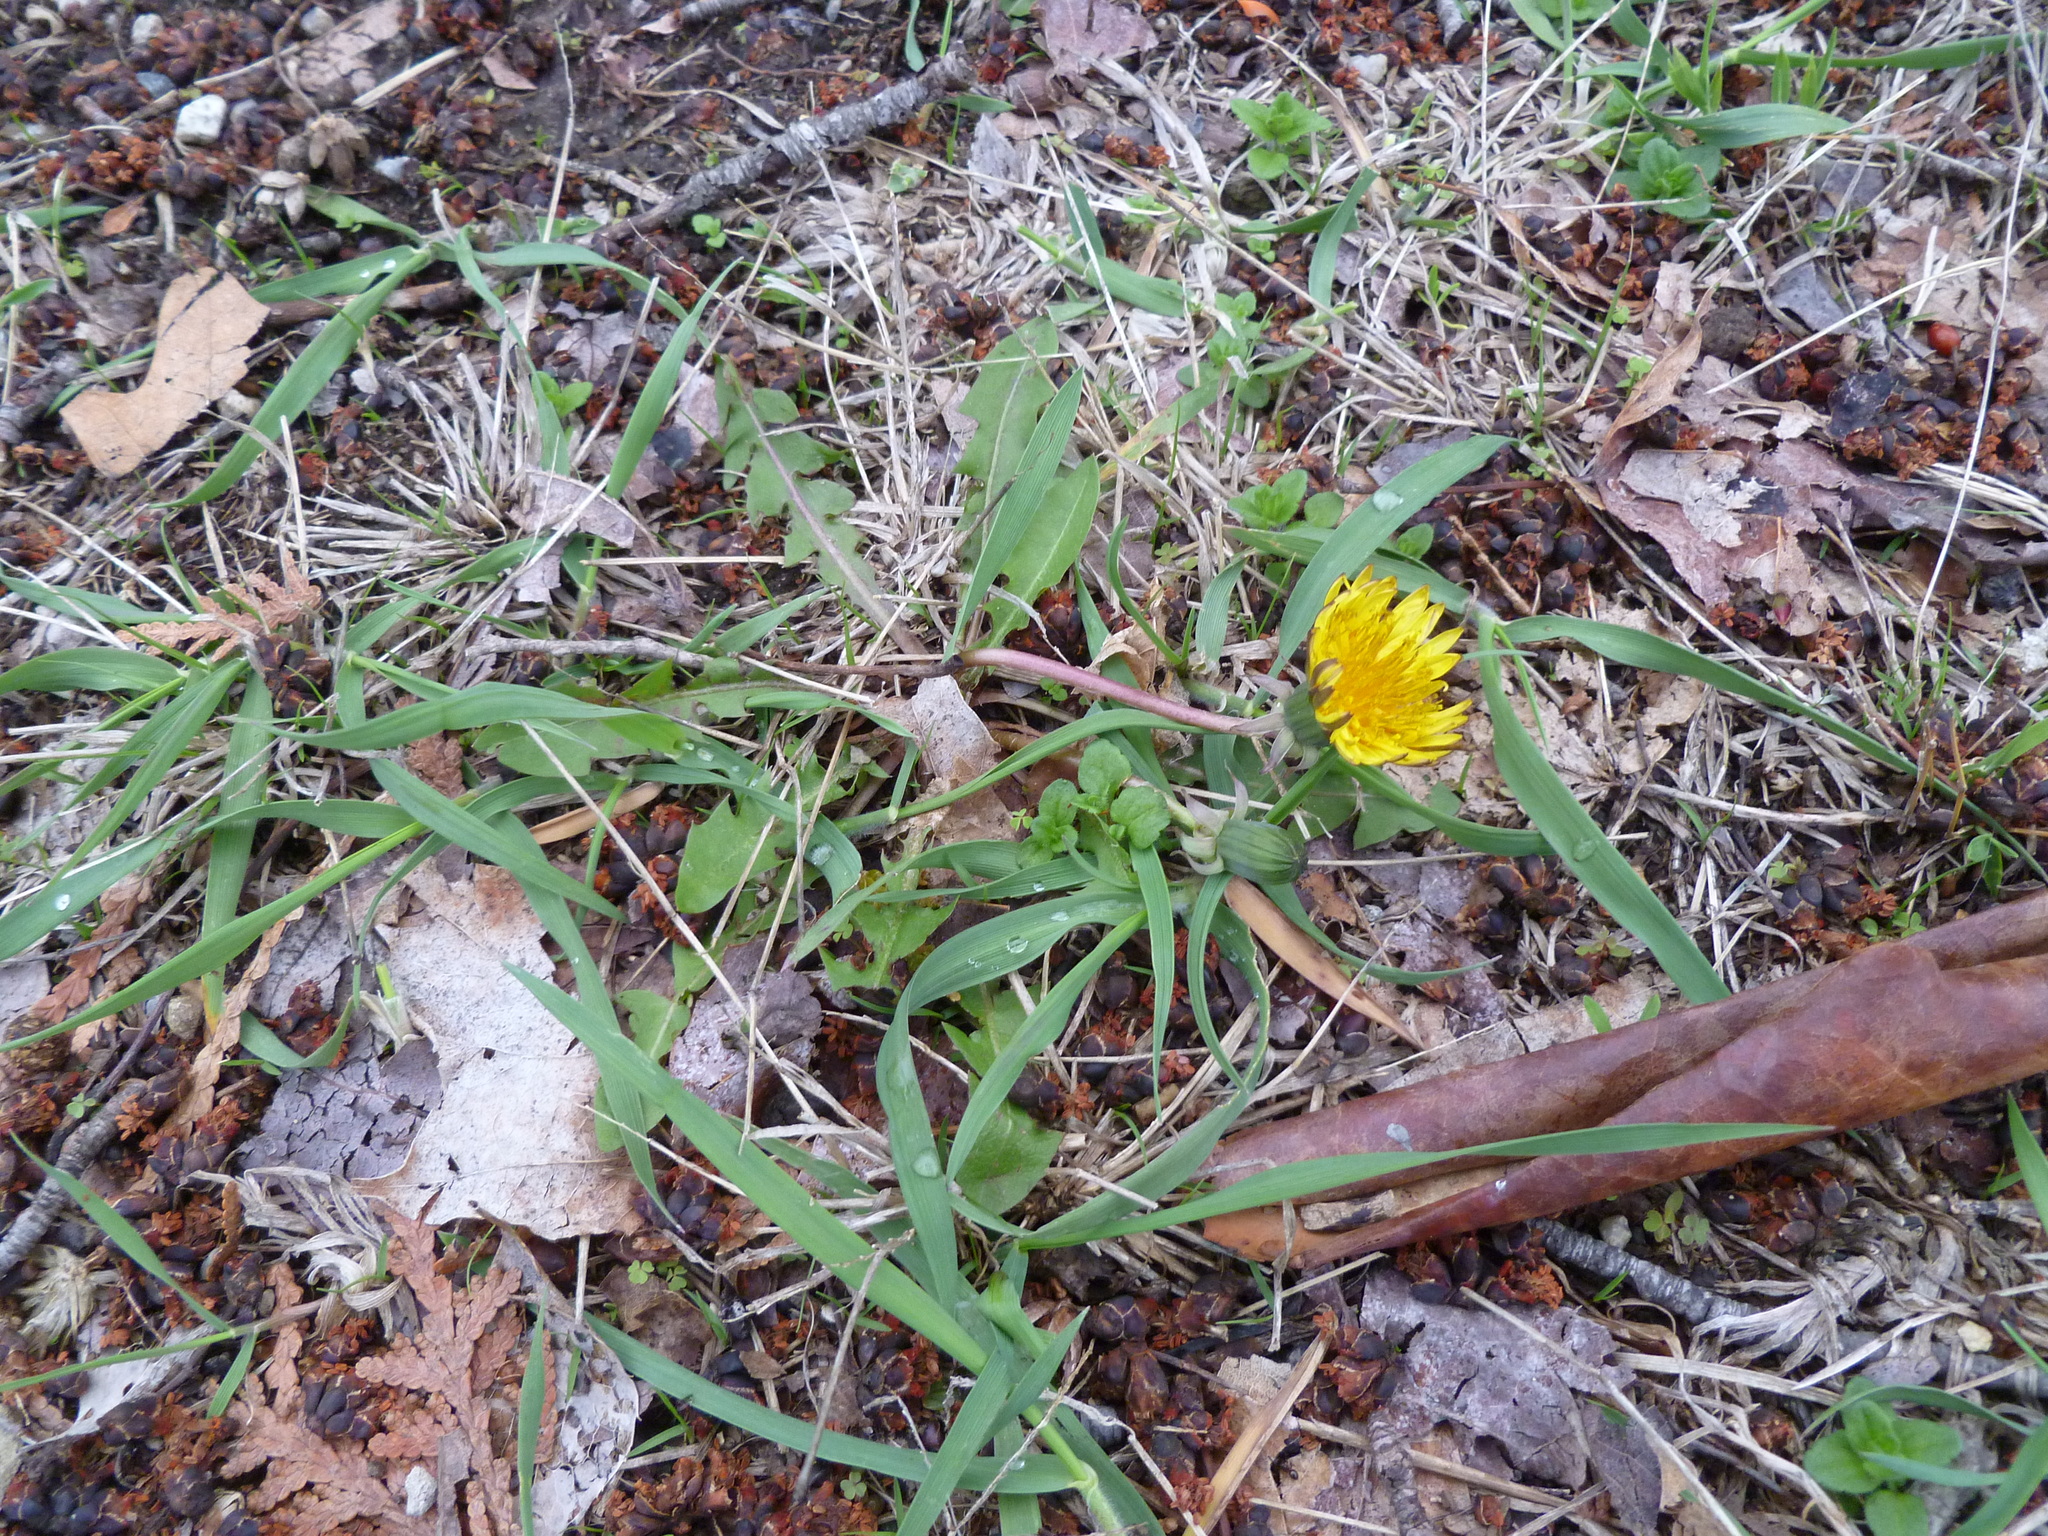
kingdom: Plantae
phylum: Tracheophyta
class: Magnoliopsida
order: Asterales
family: Asteraceae
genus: Taraxacum
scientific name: Taraxacum officinale
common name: Common dandelion
